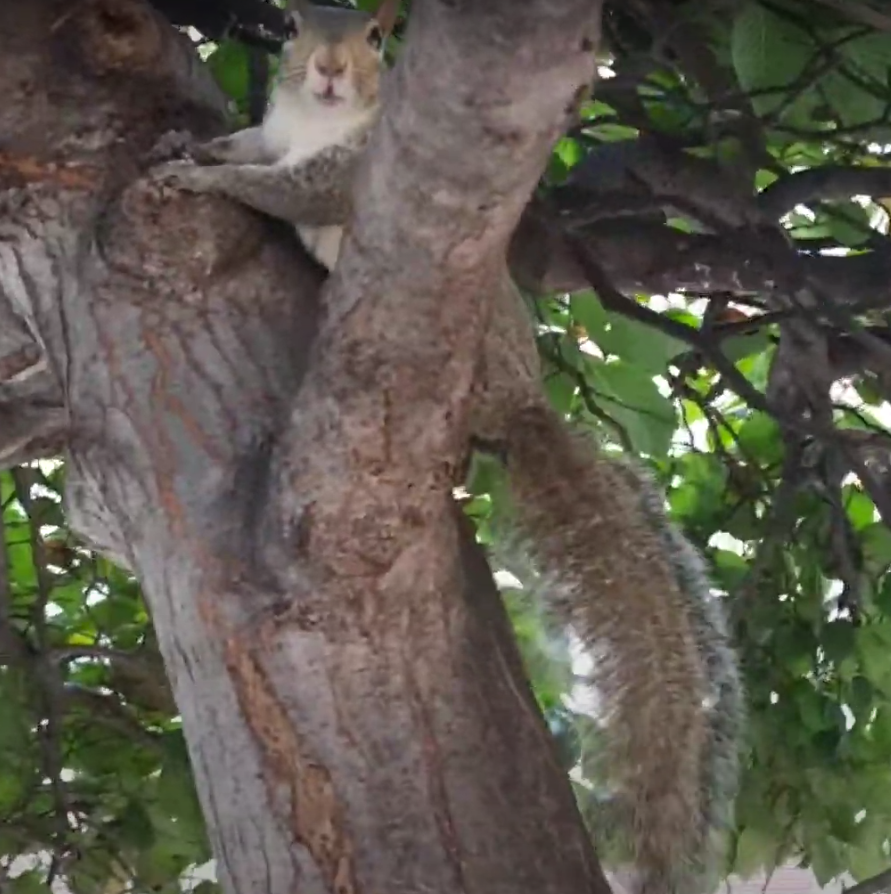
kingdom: Animalia
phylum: Chordata
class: Mammalia
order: Rodentia
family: Sciuridae
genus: Sciurus
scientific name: Sciurus carolinensis
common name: Eastern gray squirrel
